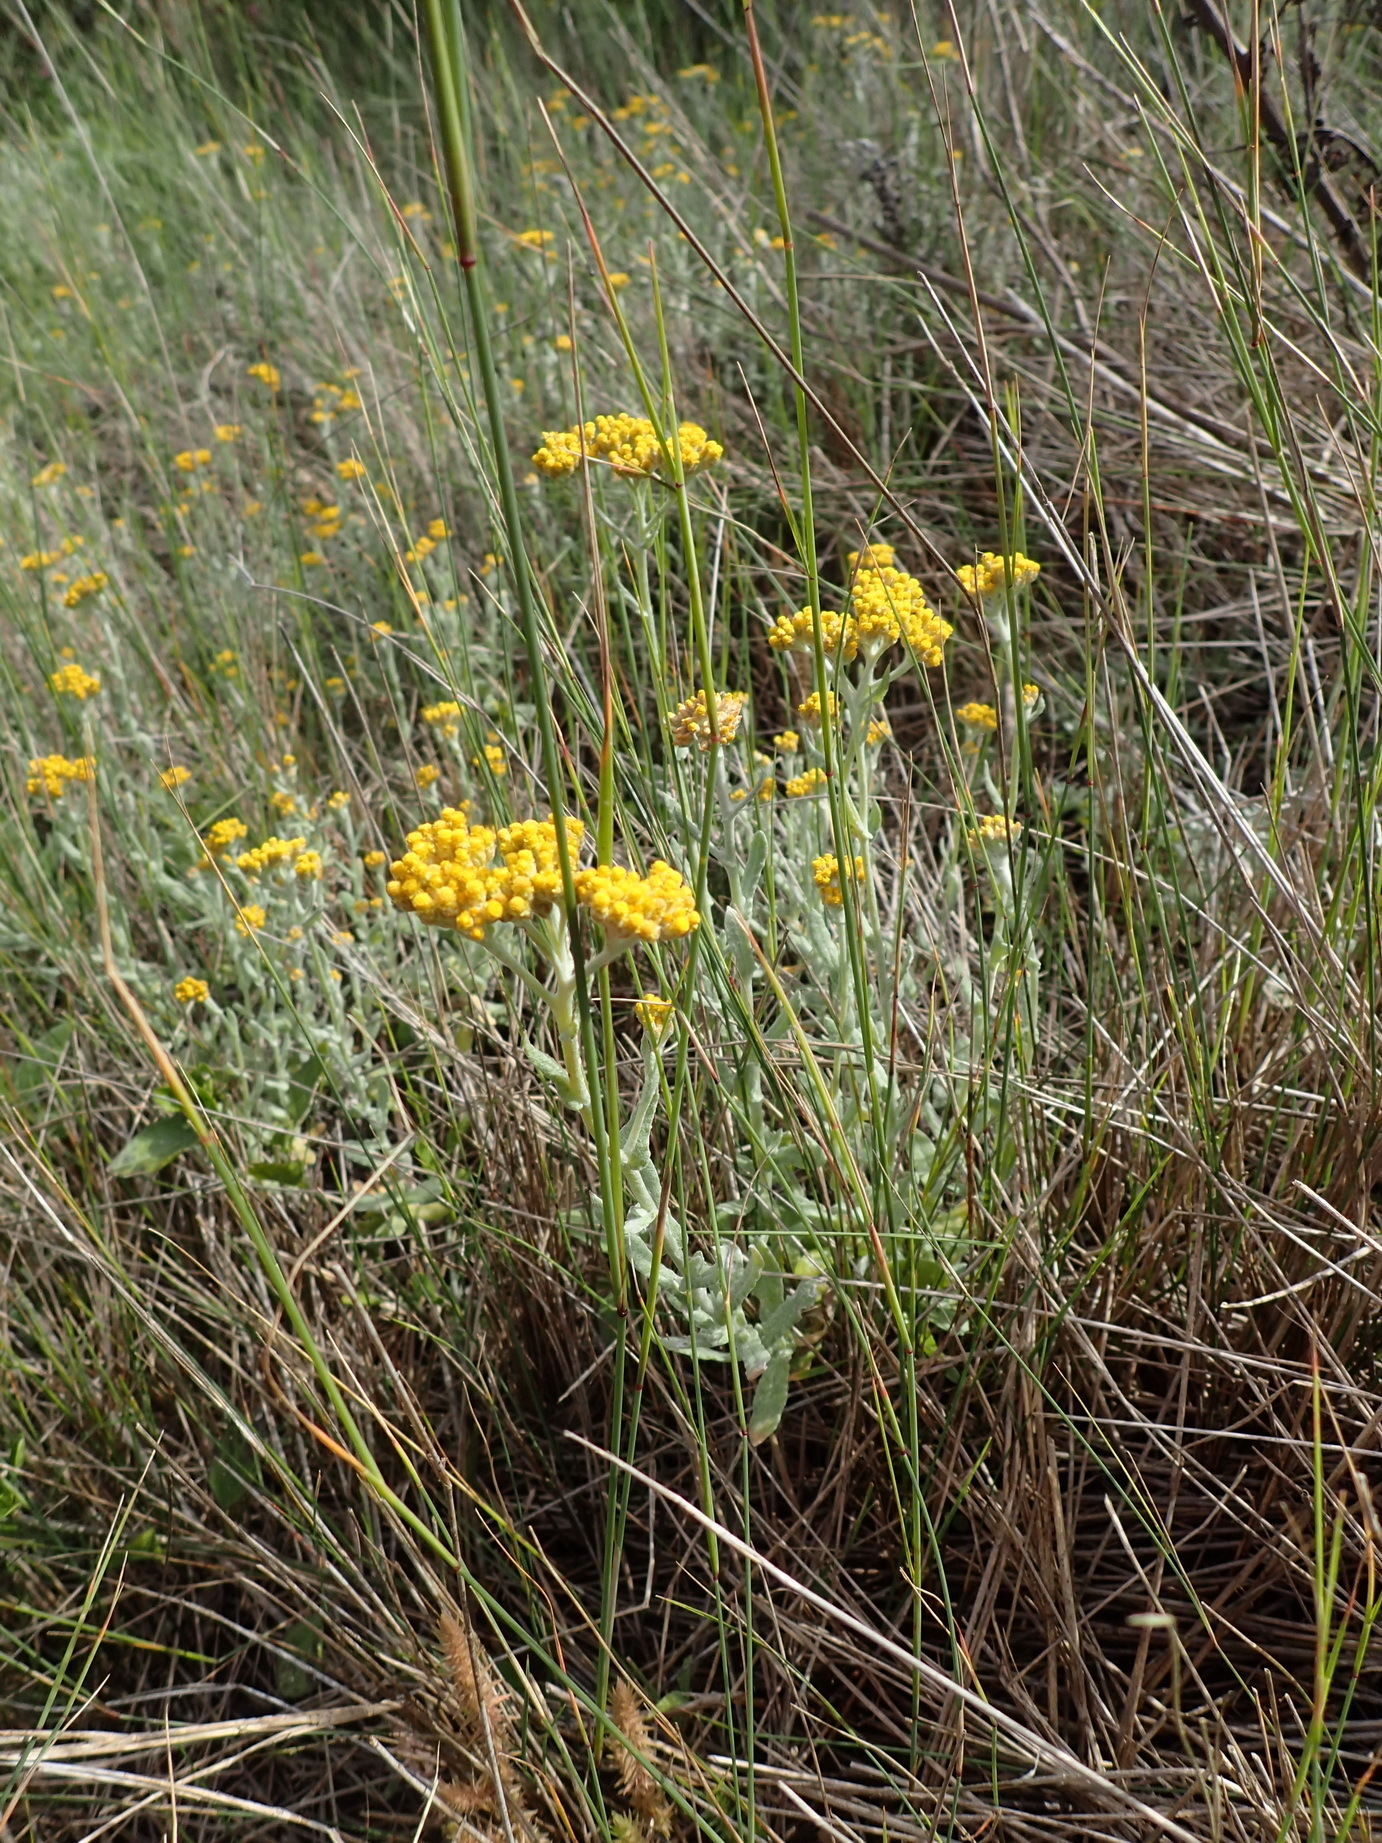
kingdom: Plantae
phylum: Tracheophyta
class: Magnoliopsida
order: Asterales
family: Asteraceae
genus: Helichrysum
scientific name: Helichrysum dasyanthum
